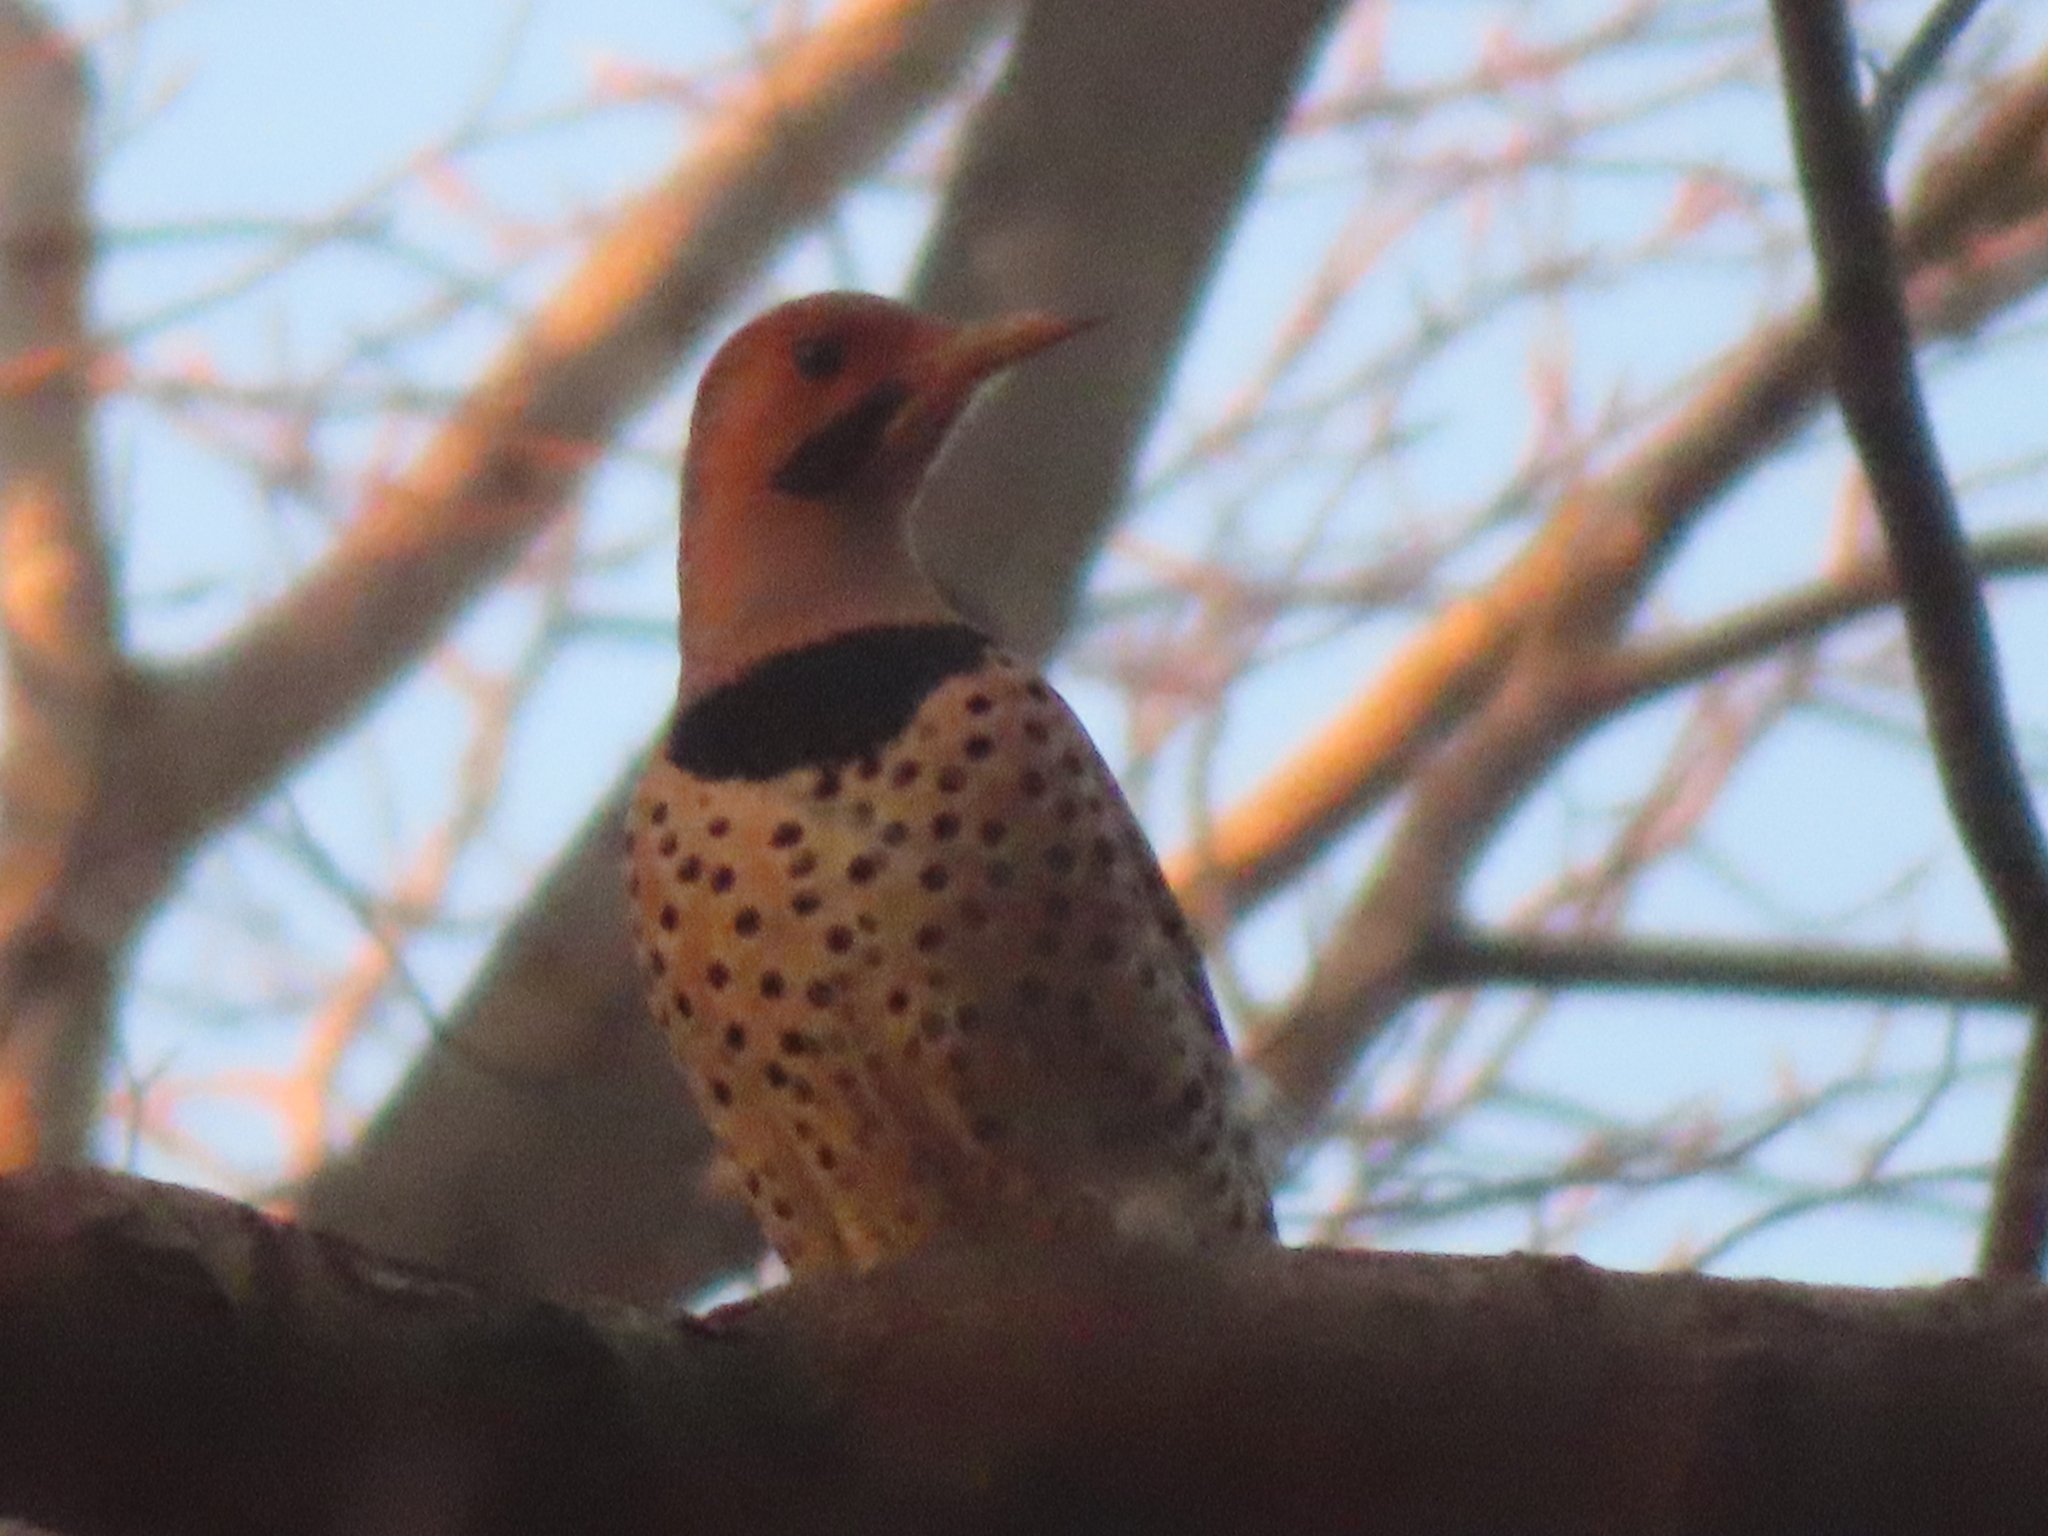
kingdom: Animalia
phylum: Chordata
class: Aves
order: Piciformes
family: Picidae
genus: Colaptes
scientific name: Colaptes auratus
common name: Northern flicker
